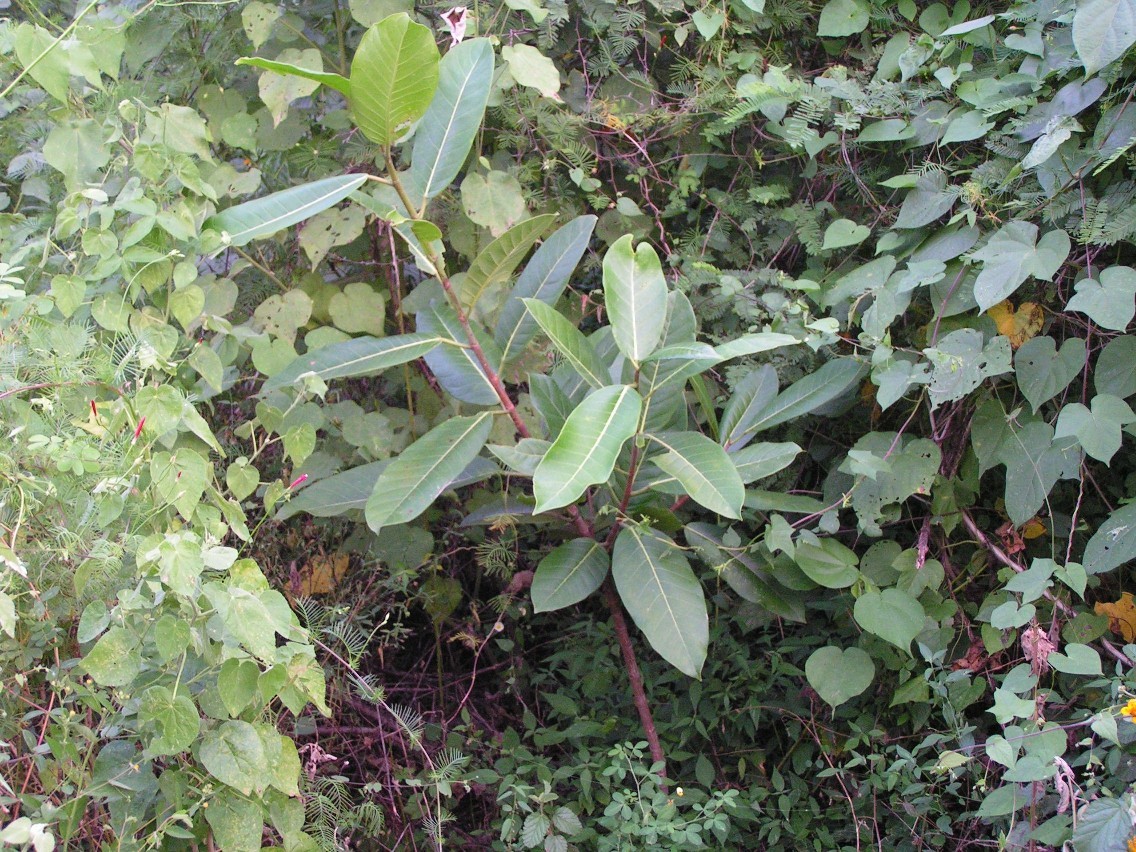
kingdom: Plantae
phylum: Tracheophyta
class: Magnoliopsida
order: Rosales
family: Moraceae
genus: Ficus
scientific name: Ficus crocata
